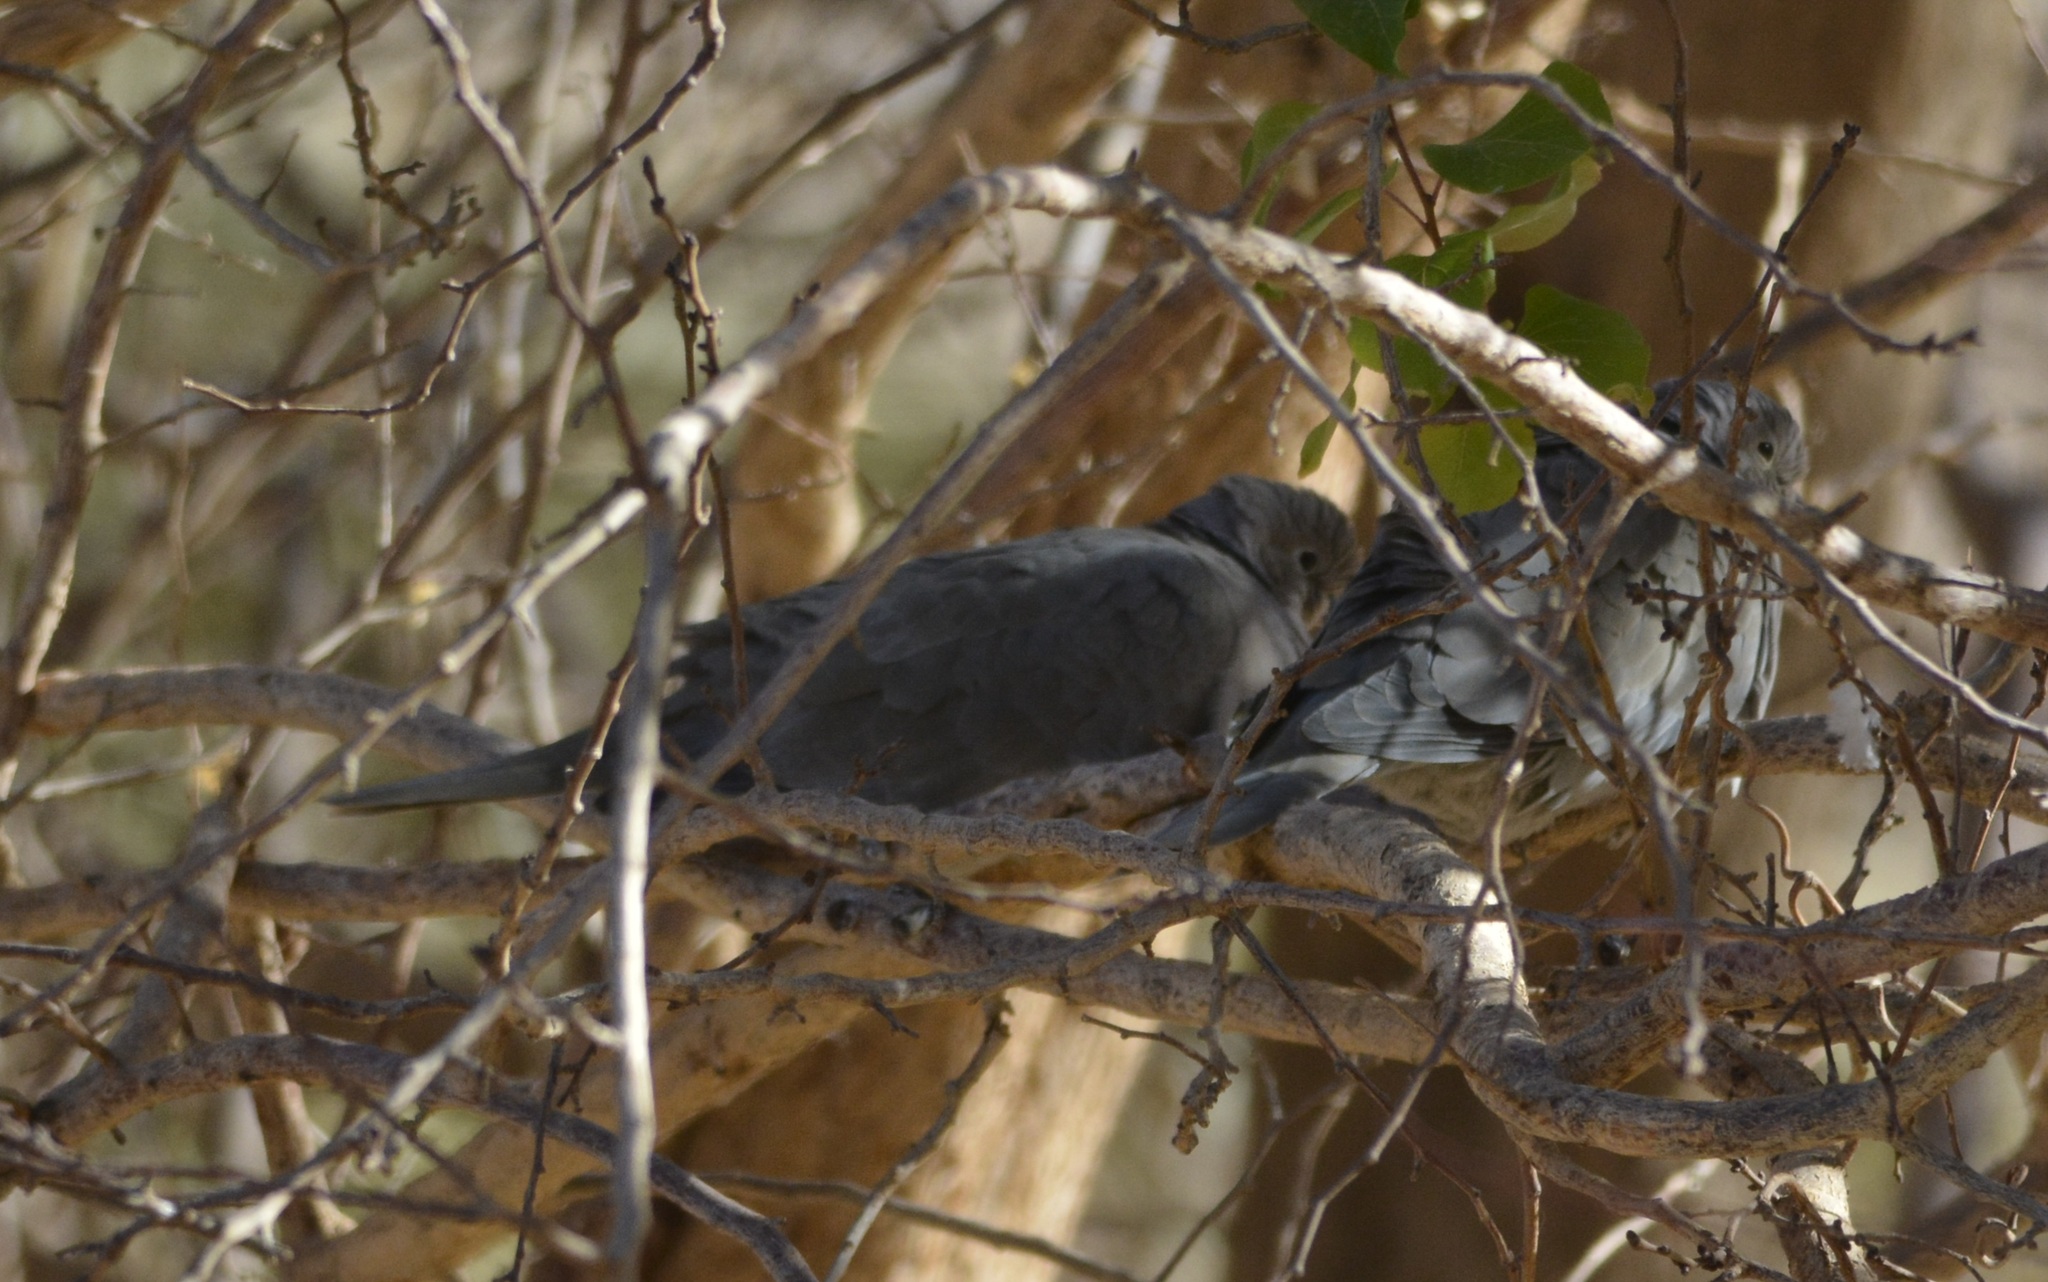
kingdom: Animalia
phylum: Chordata
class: Aves
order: Columbiformes
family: Columbidae
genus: Streptopelia
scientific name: Streptopelia decaocto
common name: Eurasian collared dove
